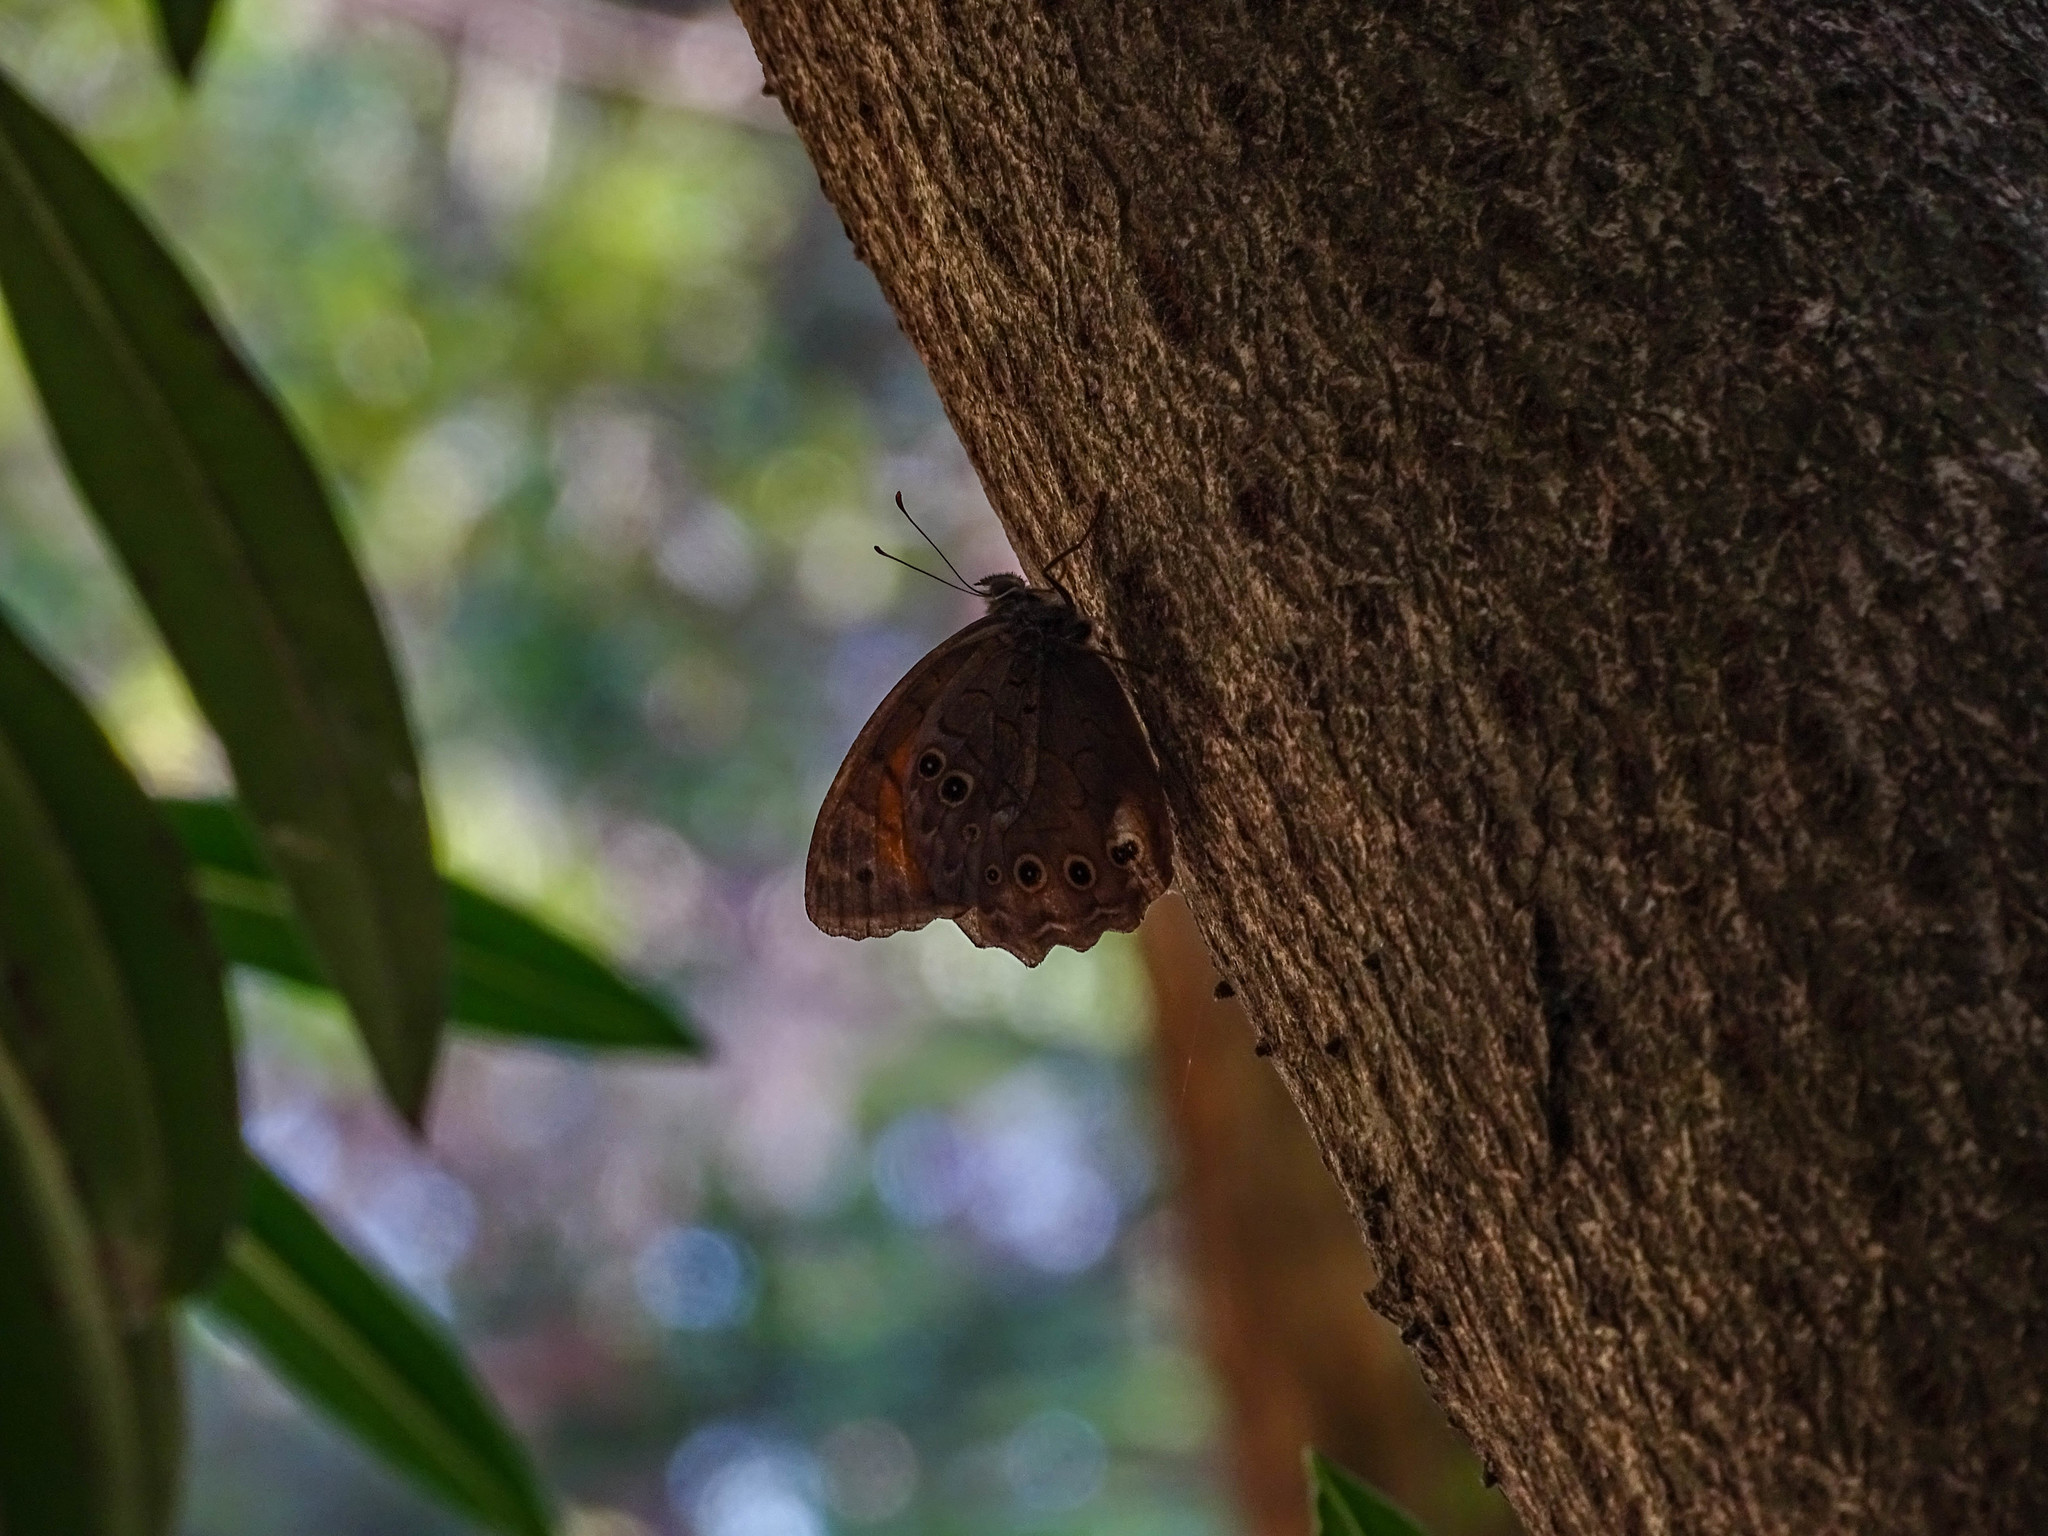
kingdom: Animalia
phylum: Arthropoda
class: Insecta
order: Lepidoptera
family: Nymphalidae
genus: Kirinia
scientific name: Kirinia roxelana
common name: Lattice brown
